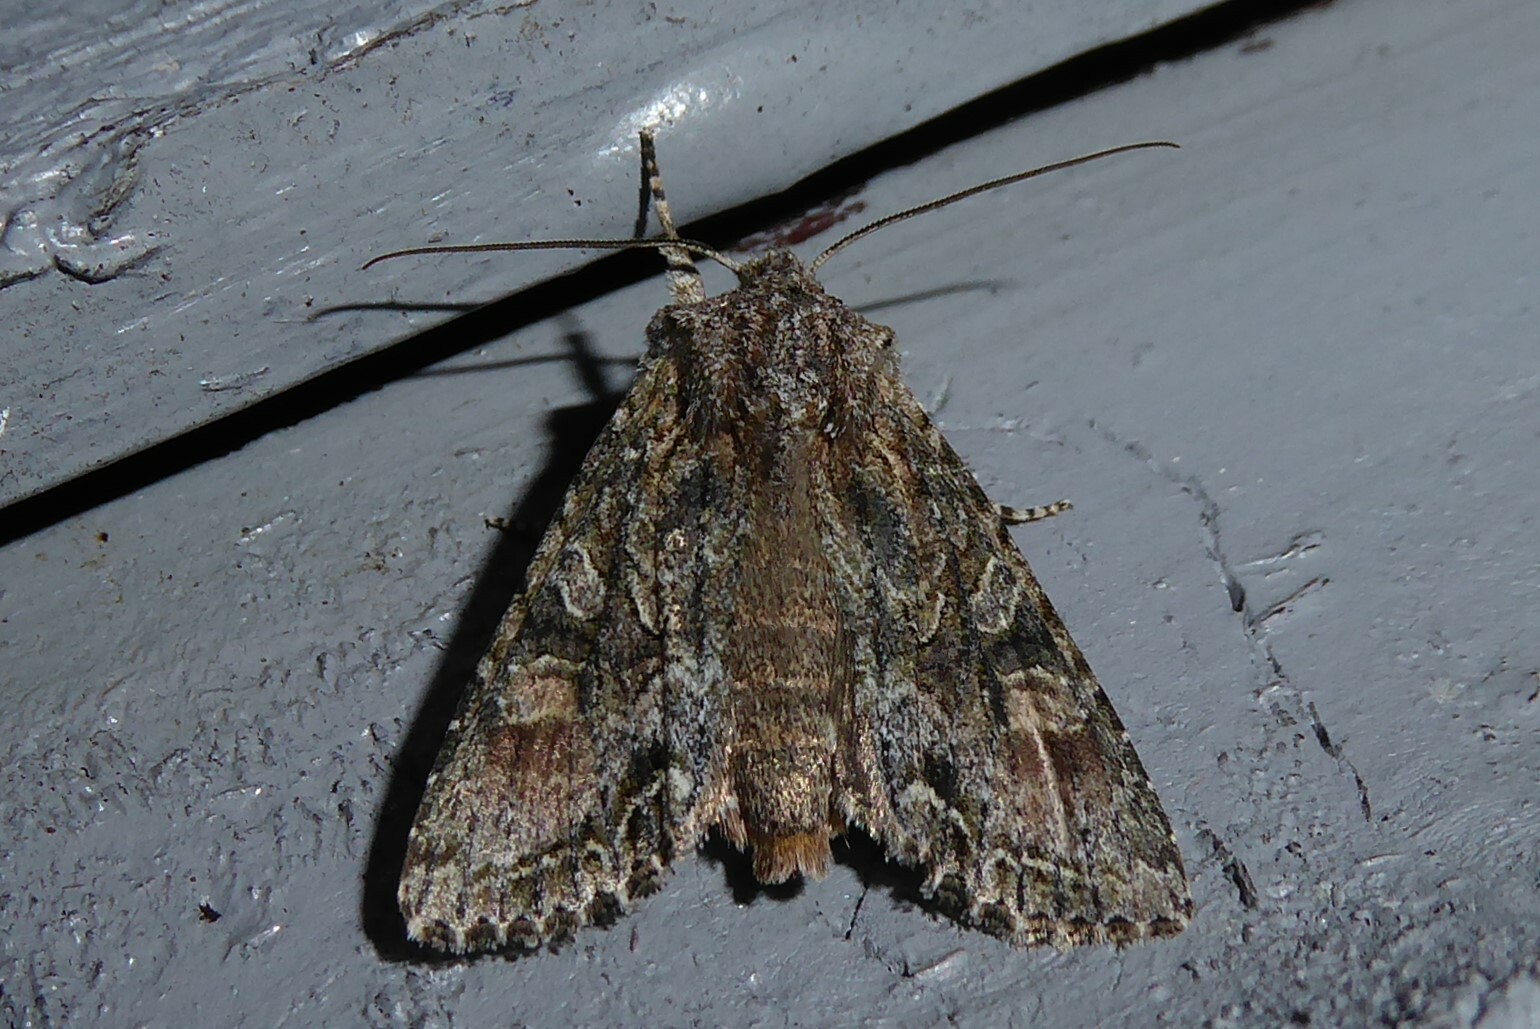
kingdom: Animalia
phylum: Arthropoda
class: Insecta
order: Lepidoptera
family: Noctuidae
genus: Ichneutica
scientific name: Ichneutica mutans
